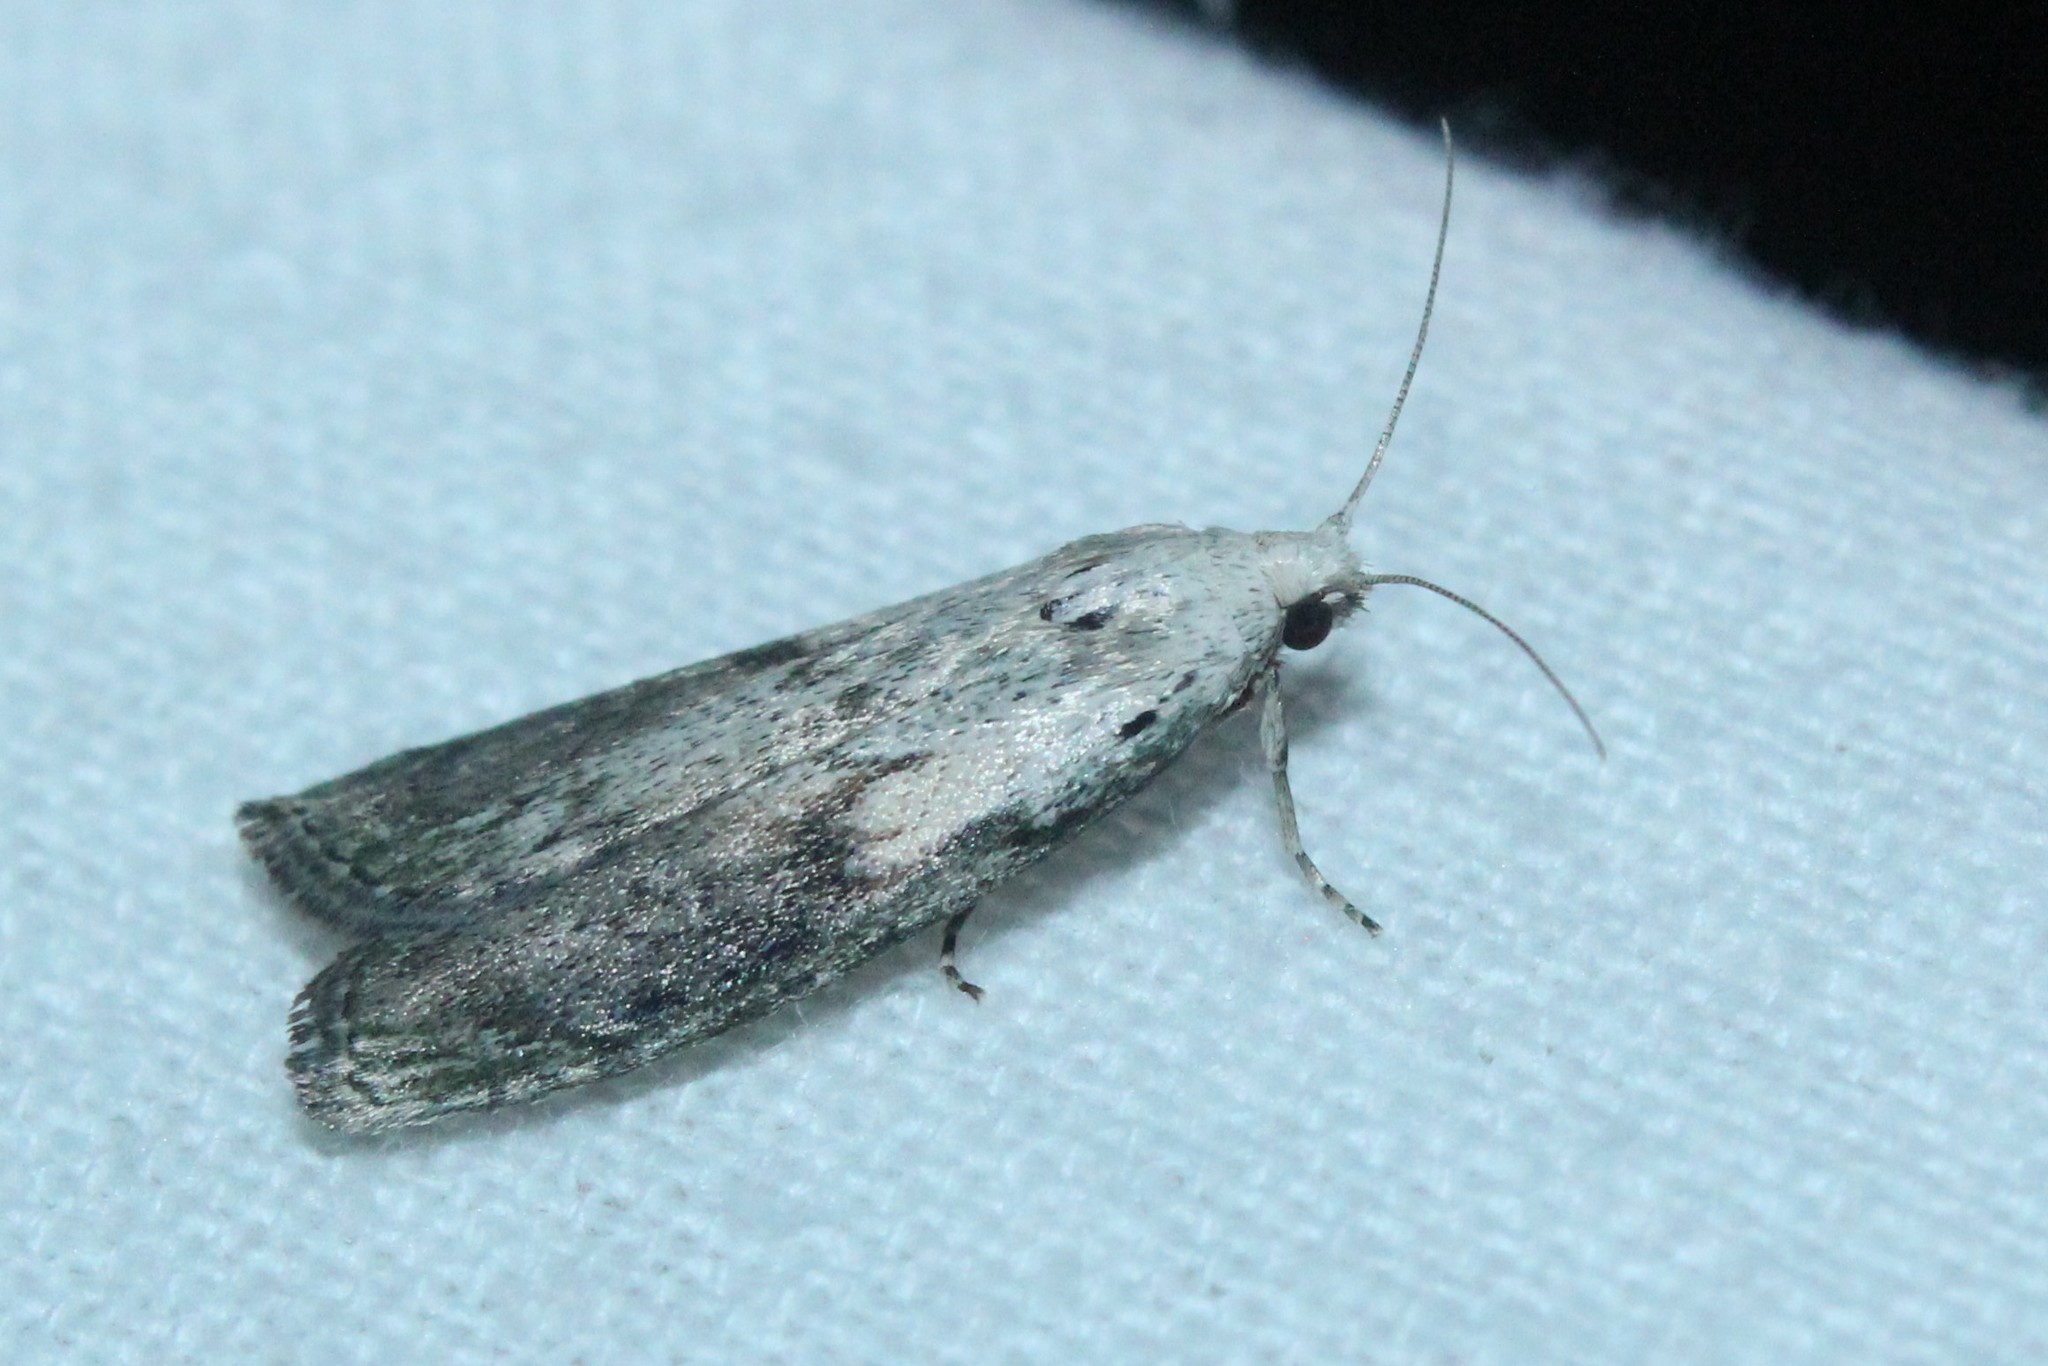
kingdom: Animalia
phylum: Arthropoda
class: Insecta
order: Lepidoptera
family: Pyralidae
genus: Aphomia
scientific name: Aphomia sociella
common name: Bee moth
